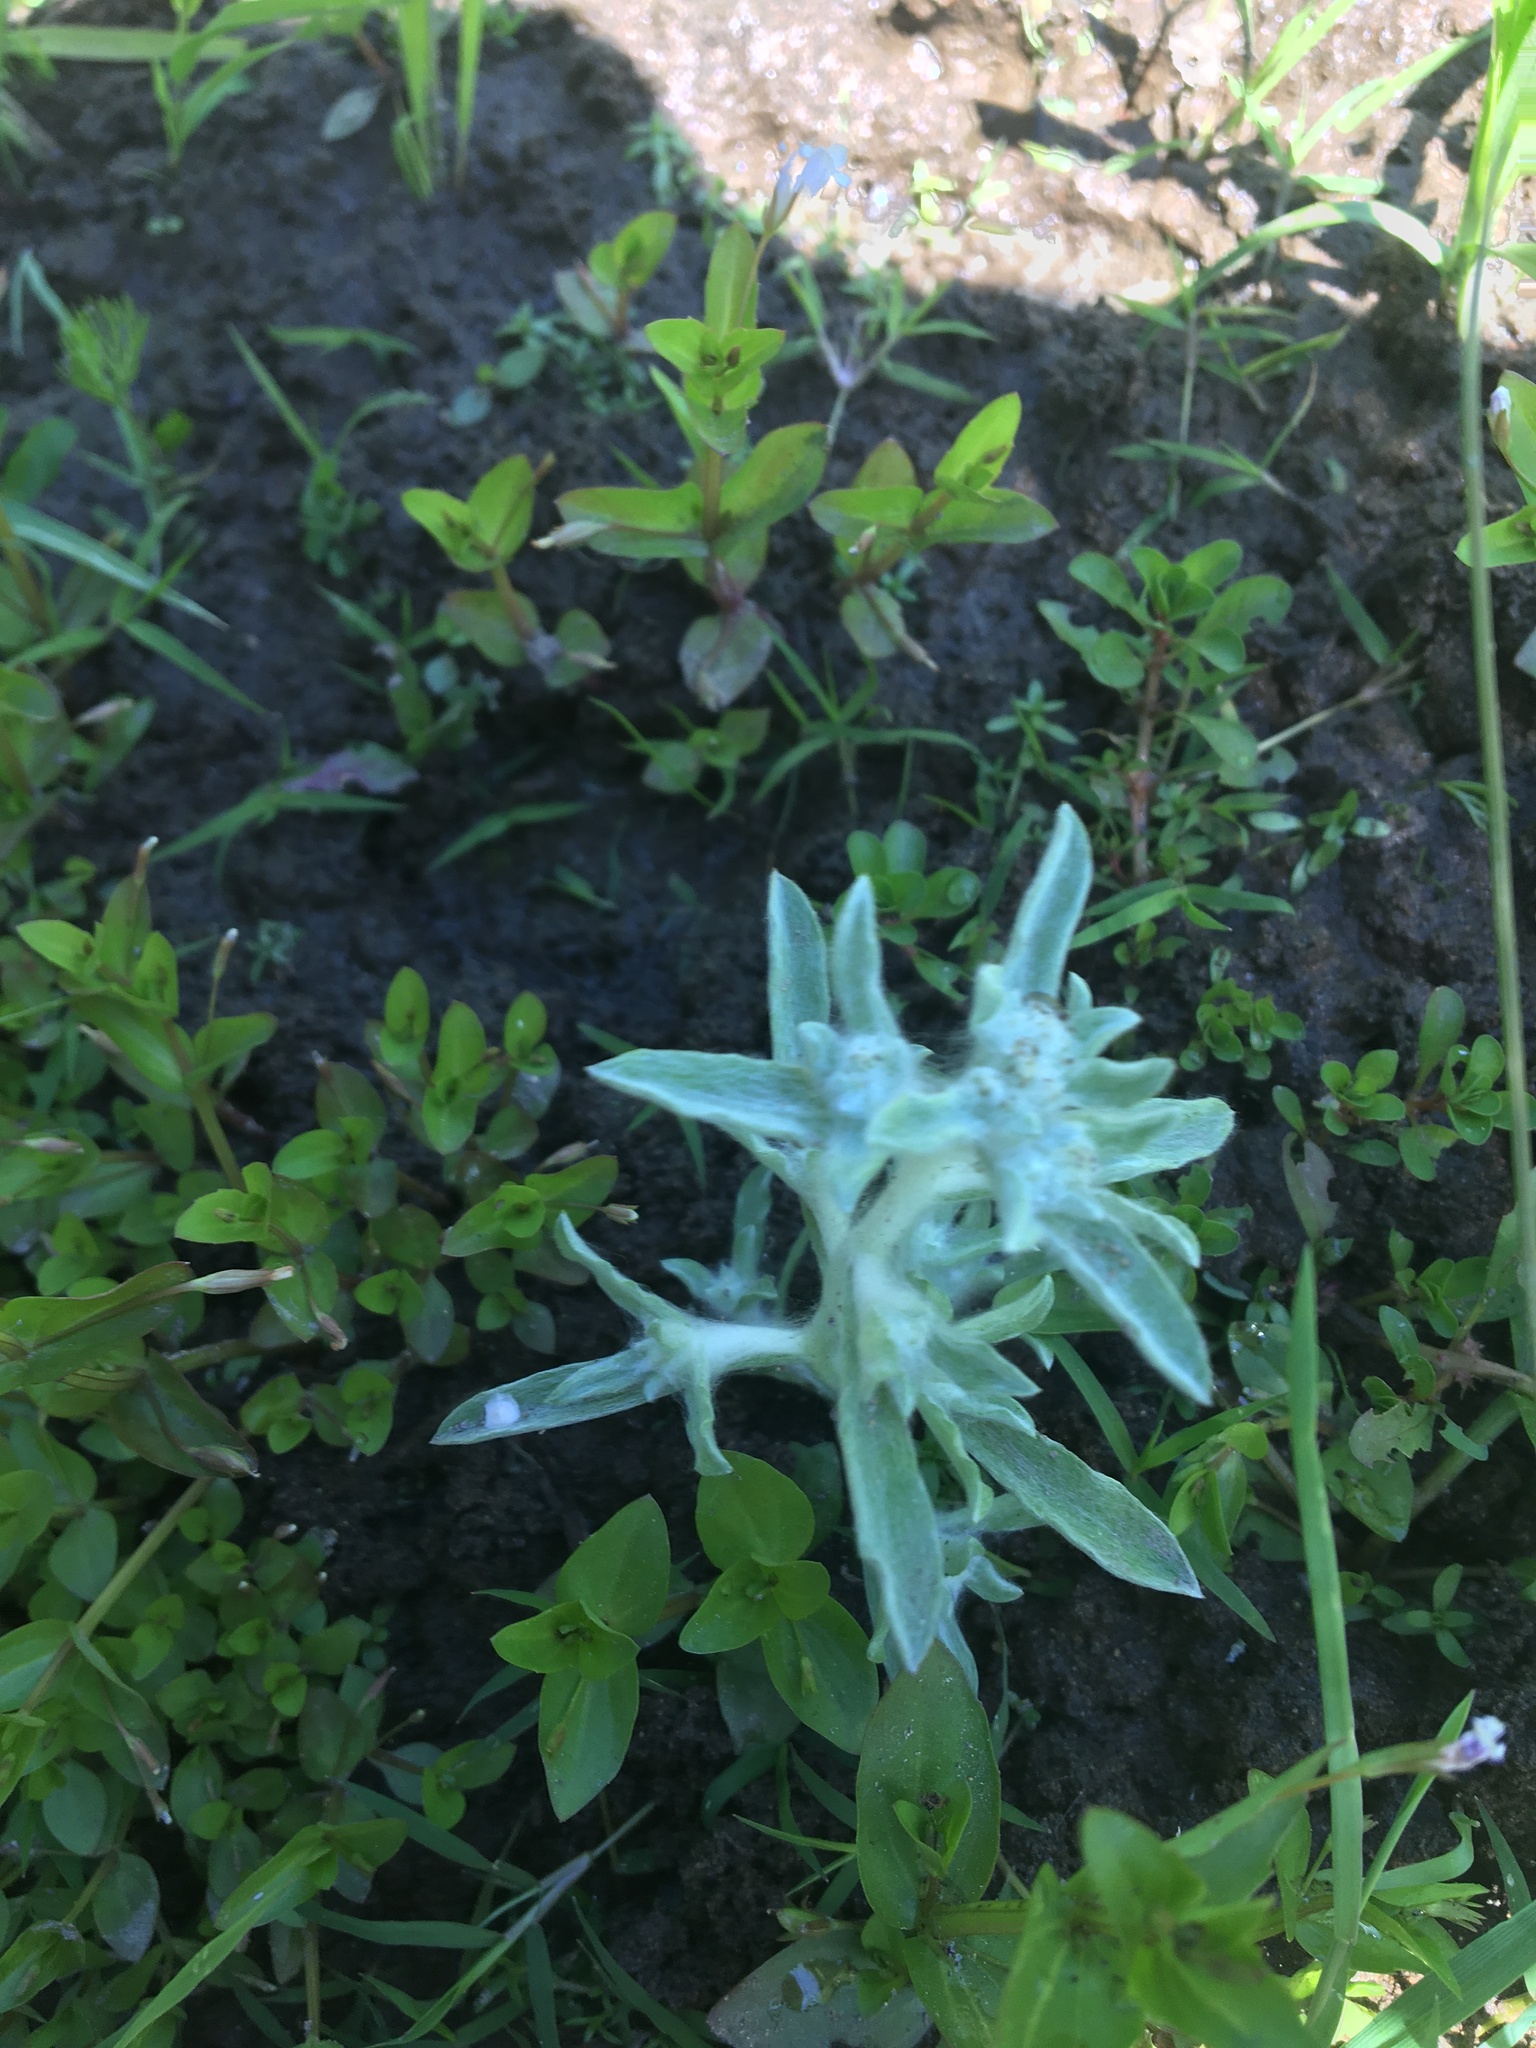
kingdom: Plantae
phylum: Tracheophyta
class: Magnoliopsida
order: Asterales
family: Asteraceae
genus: Gnaphalium
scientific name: Gnaphalium uliginosum
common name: Marsh cudweed
